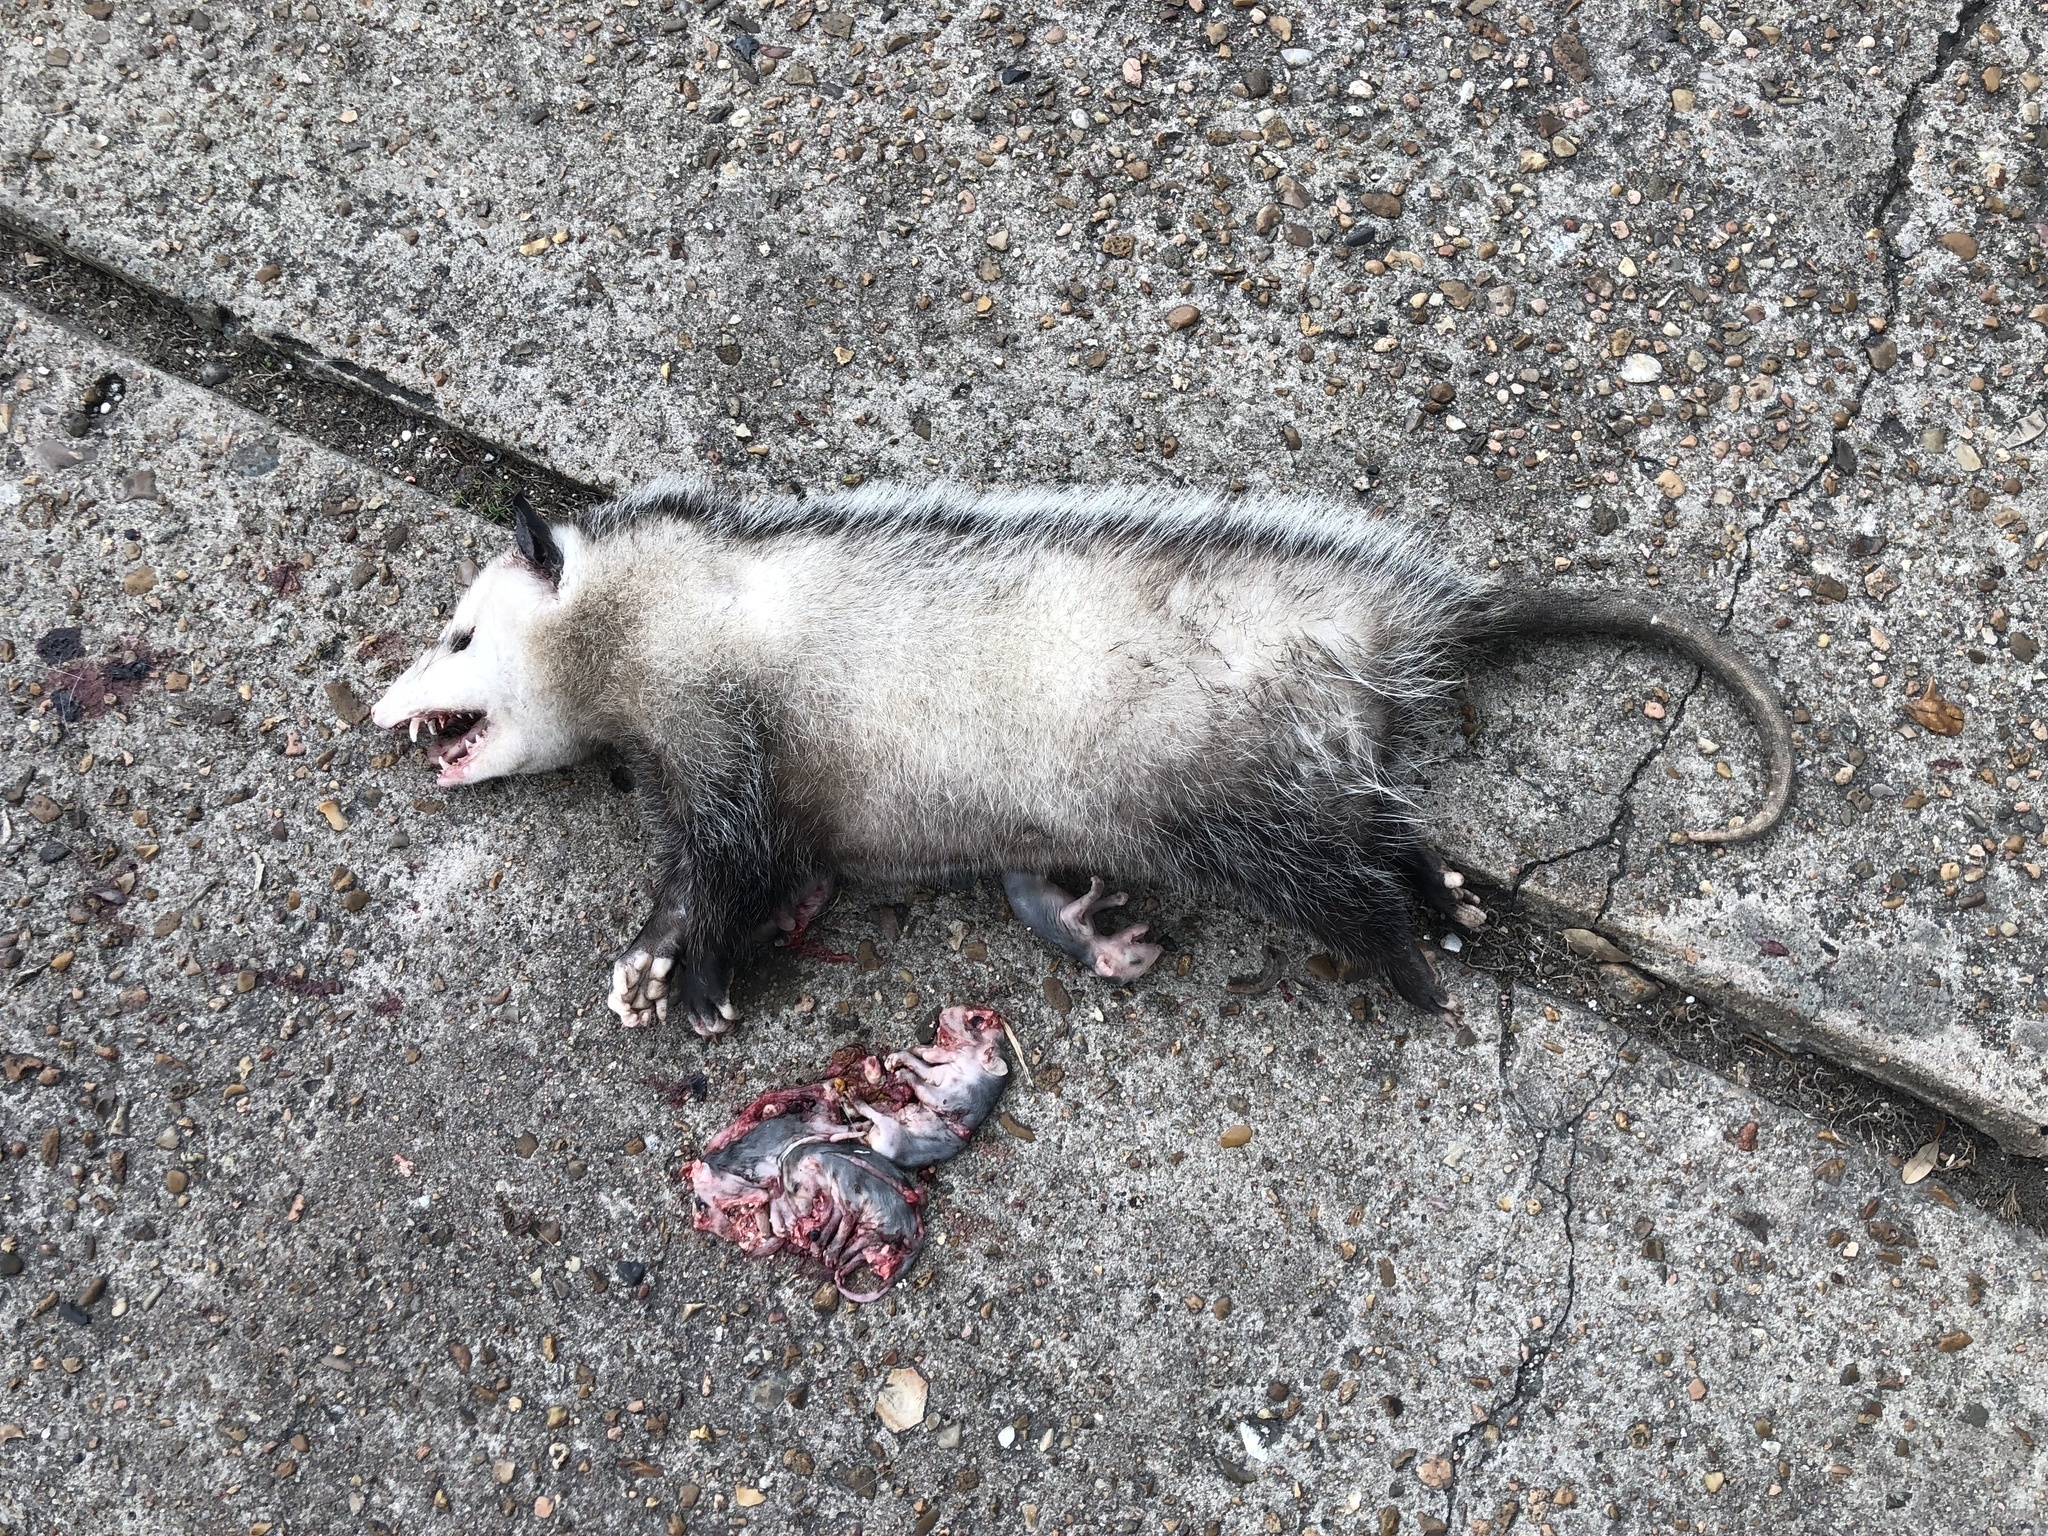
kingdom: Animalia
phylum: Chordata
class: Mammalia
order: Didelphimorphia
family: Didelphidae
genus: Didelphis
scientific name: Didelphis virginiana
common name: Virginia opossum
